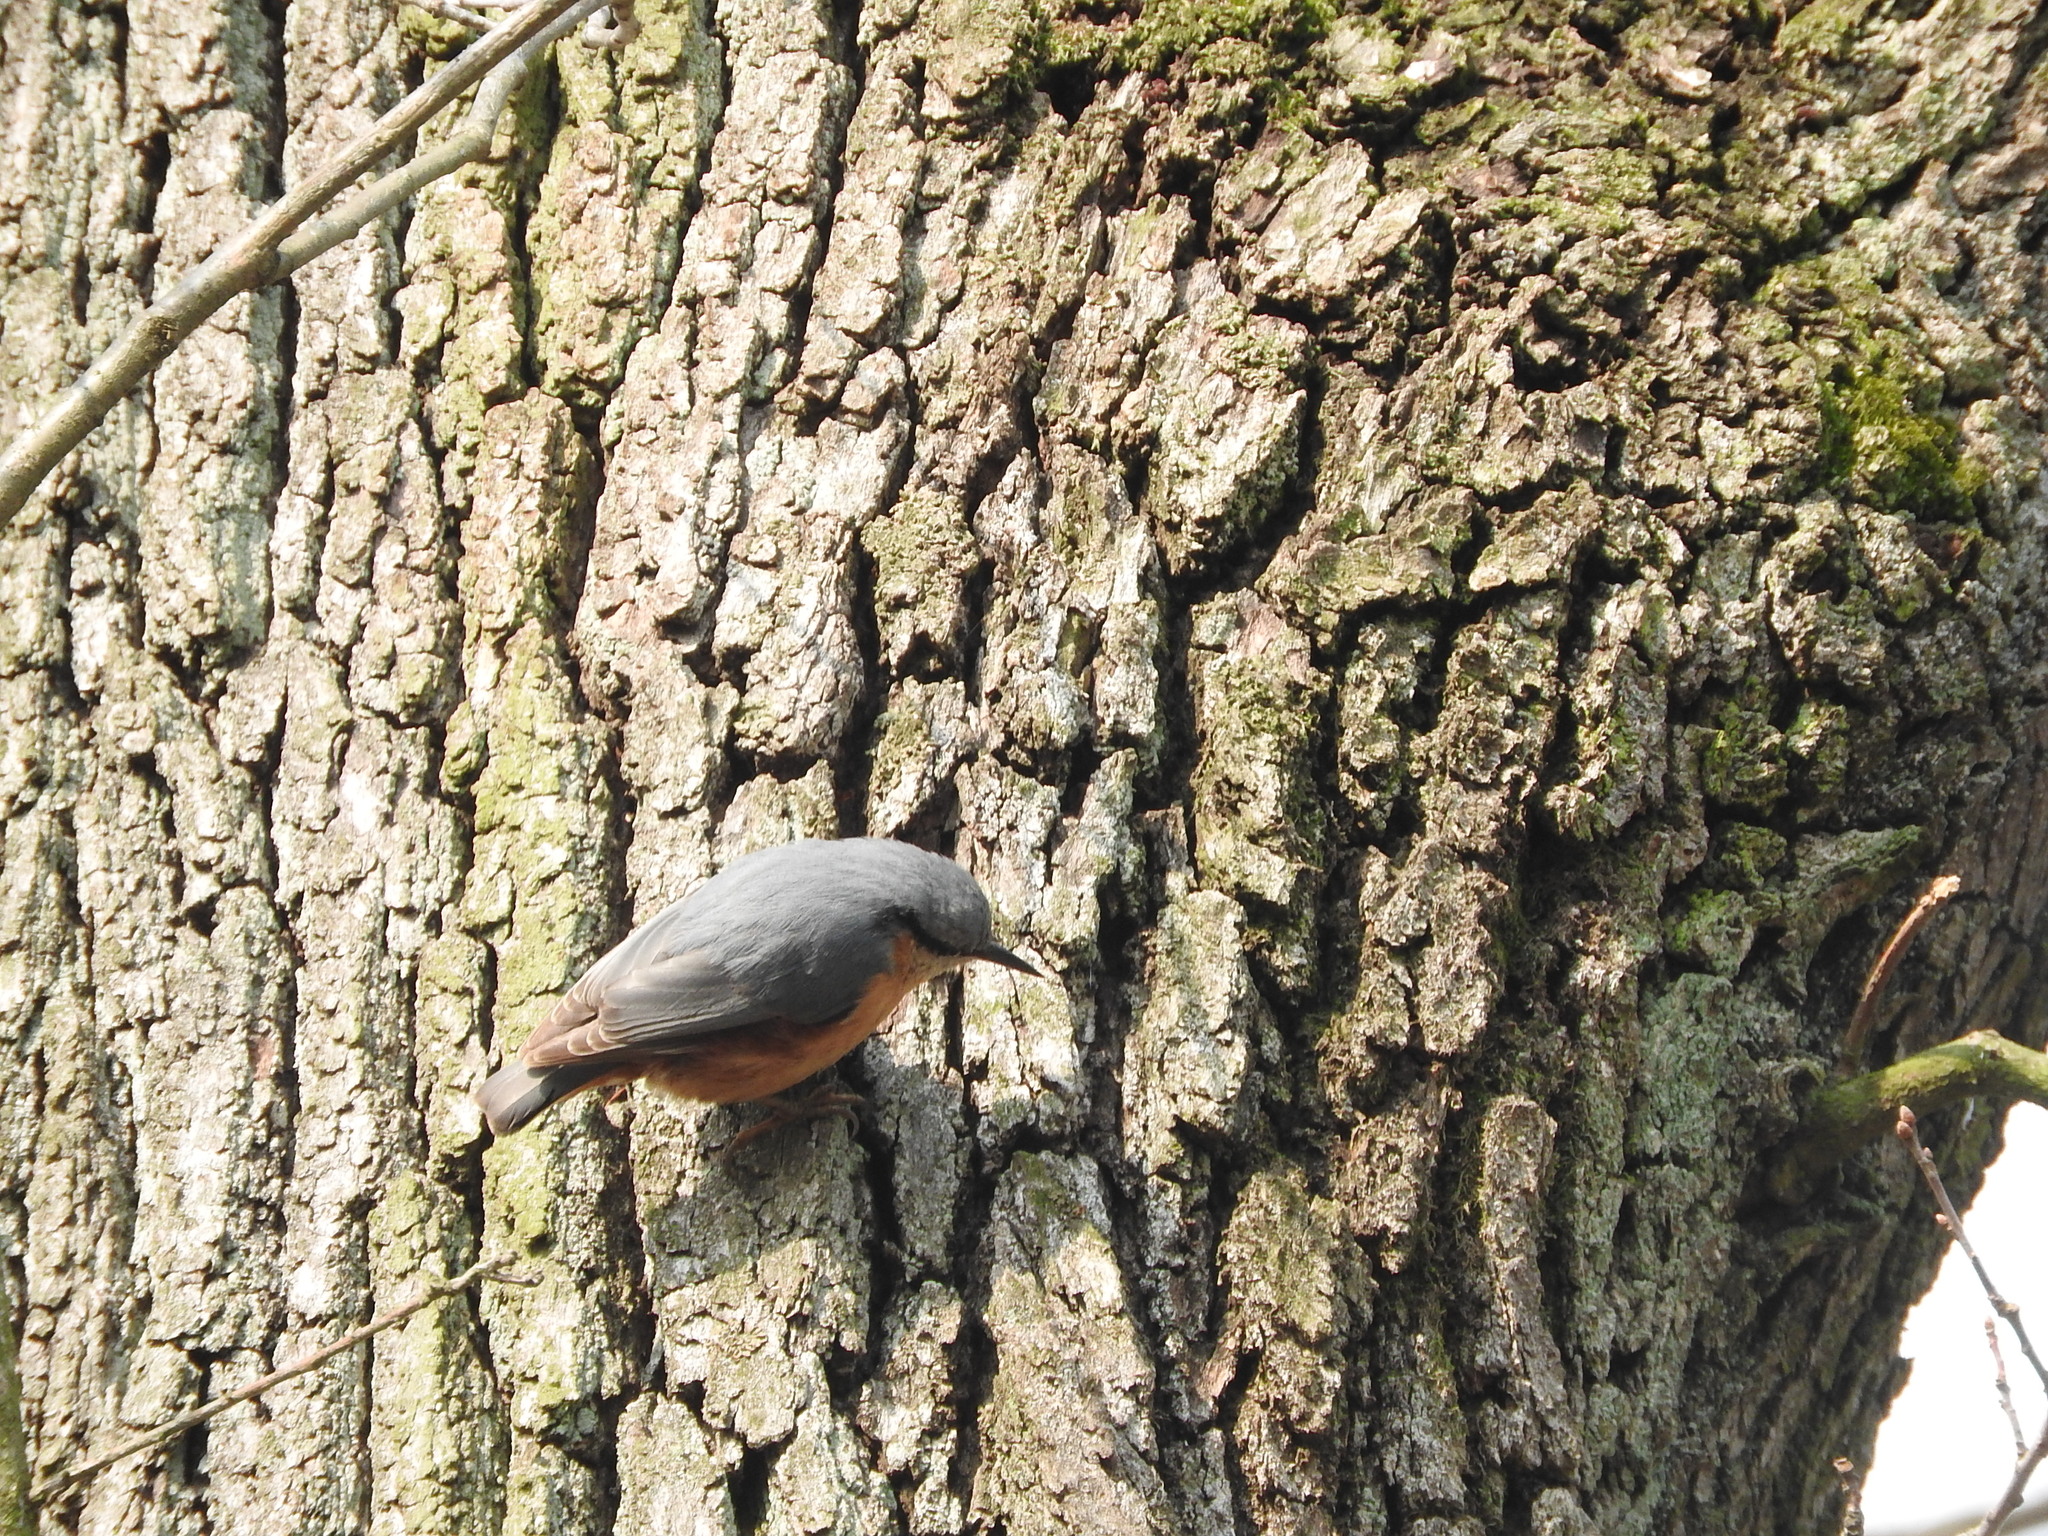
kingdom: Animalia
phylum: Chordata
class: Aves
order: Passeriformes
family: Sittidae
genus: Sitta
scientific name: Sitta europaea
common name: Eurasian nuthatch
